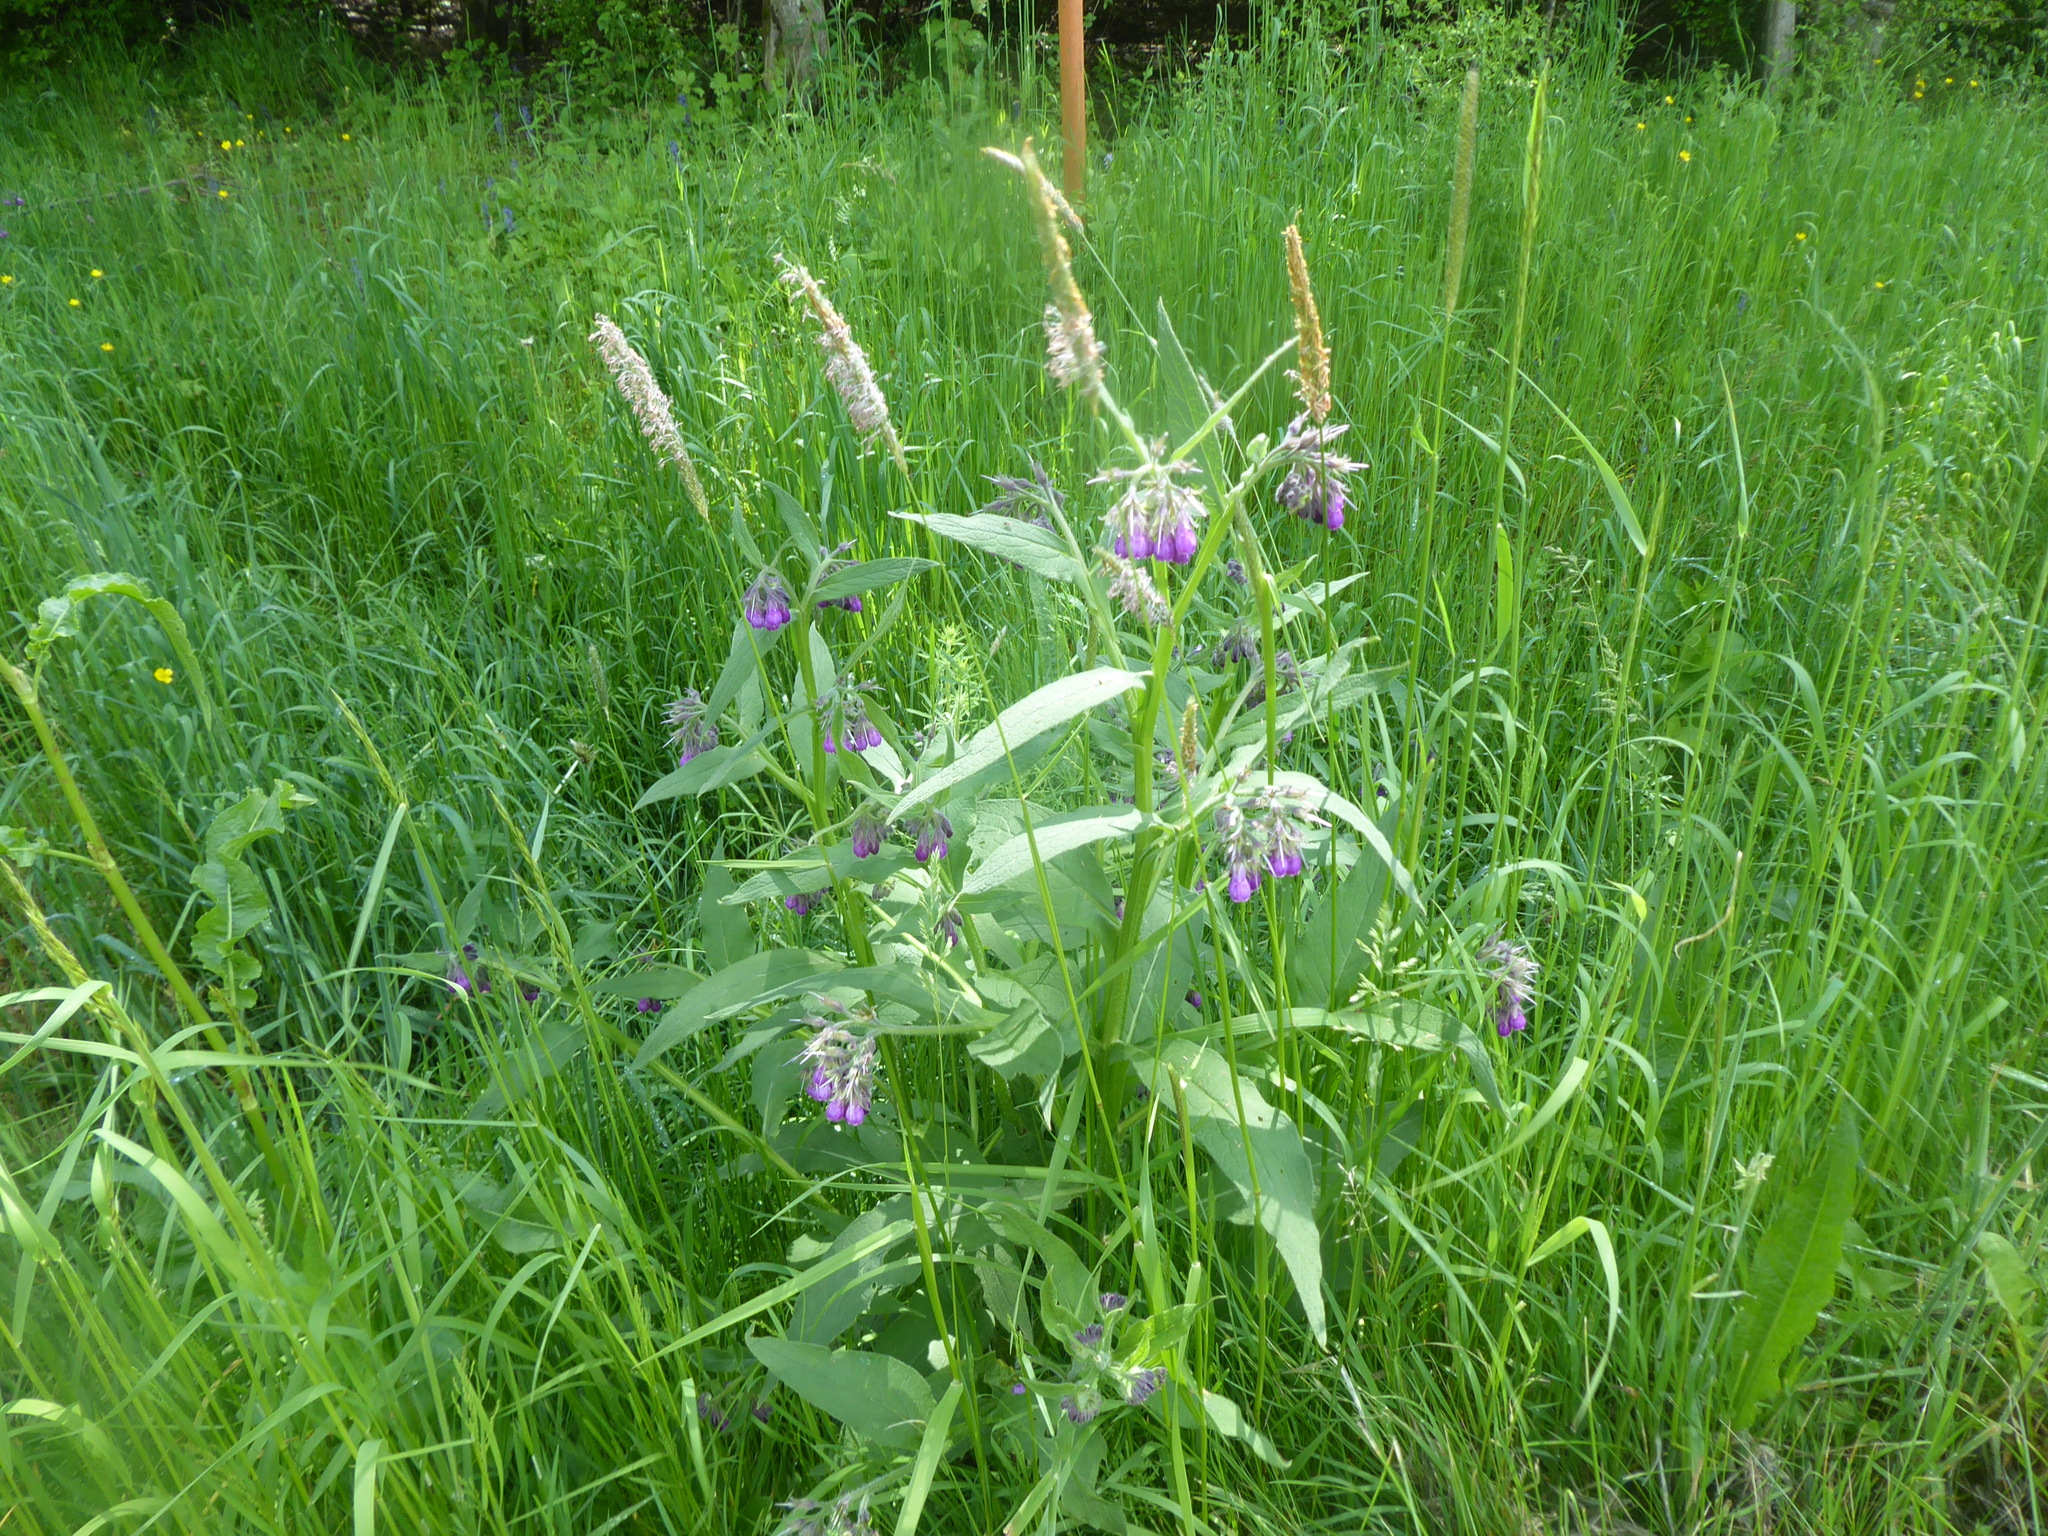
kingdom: Plantae
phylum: Tracheophyta
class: Magnoliopsida
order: Boraginales
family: Boraginaceae
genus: Symphytum
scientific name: Symphytum officinale
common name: Common comfrey
